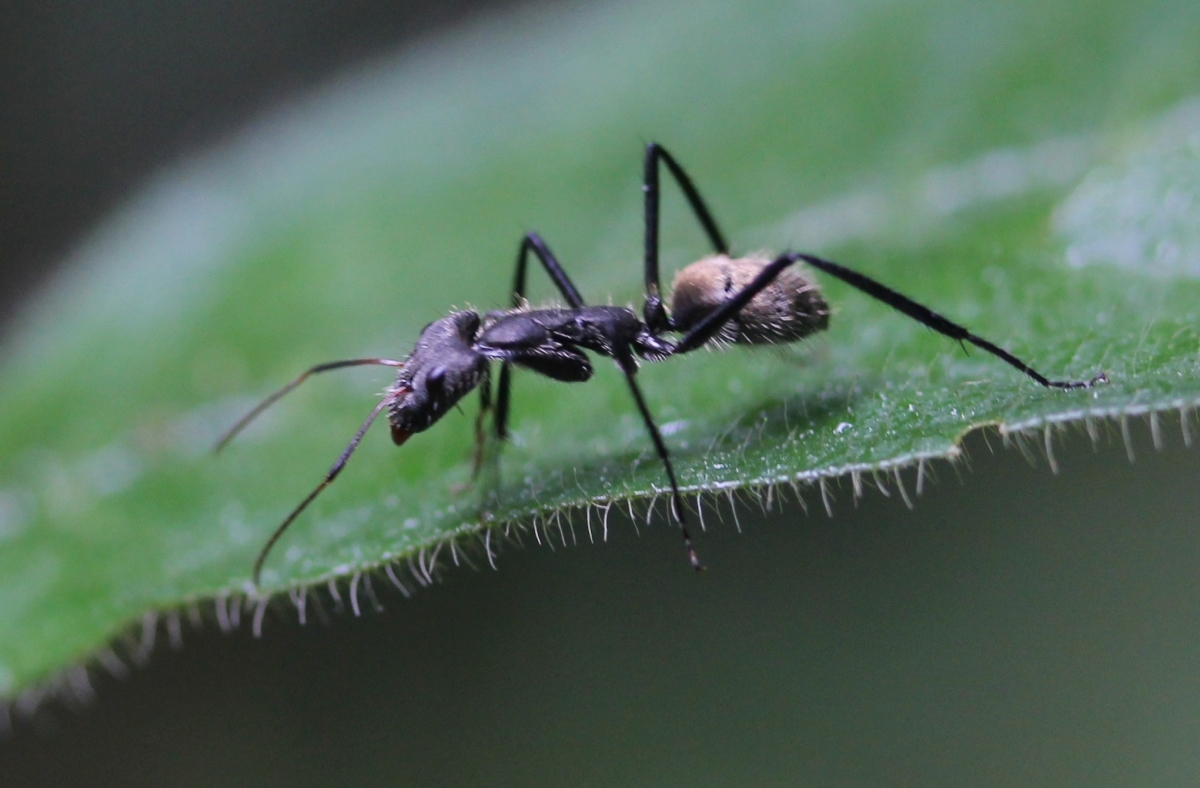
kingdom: Animalia
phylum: Arthropoda
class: Insecta
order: Hymenoptera
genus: Myrmomalis
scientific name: Myrmomalis
